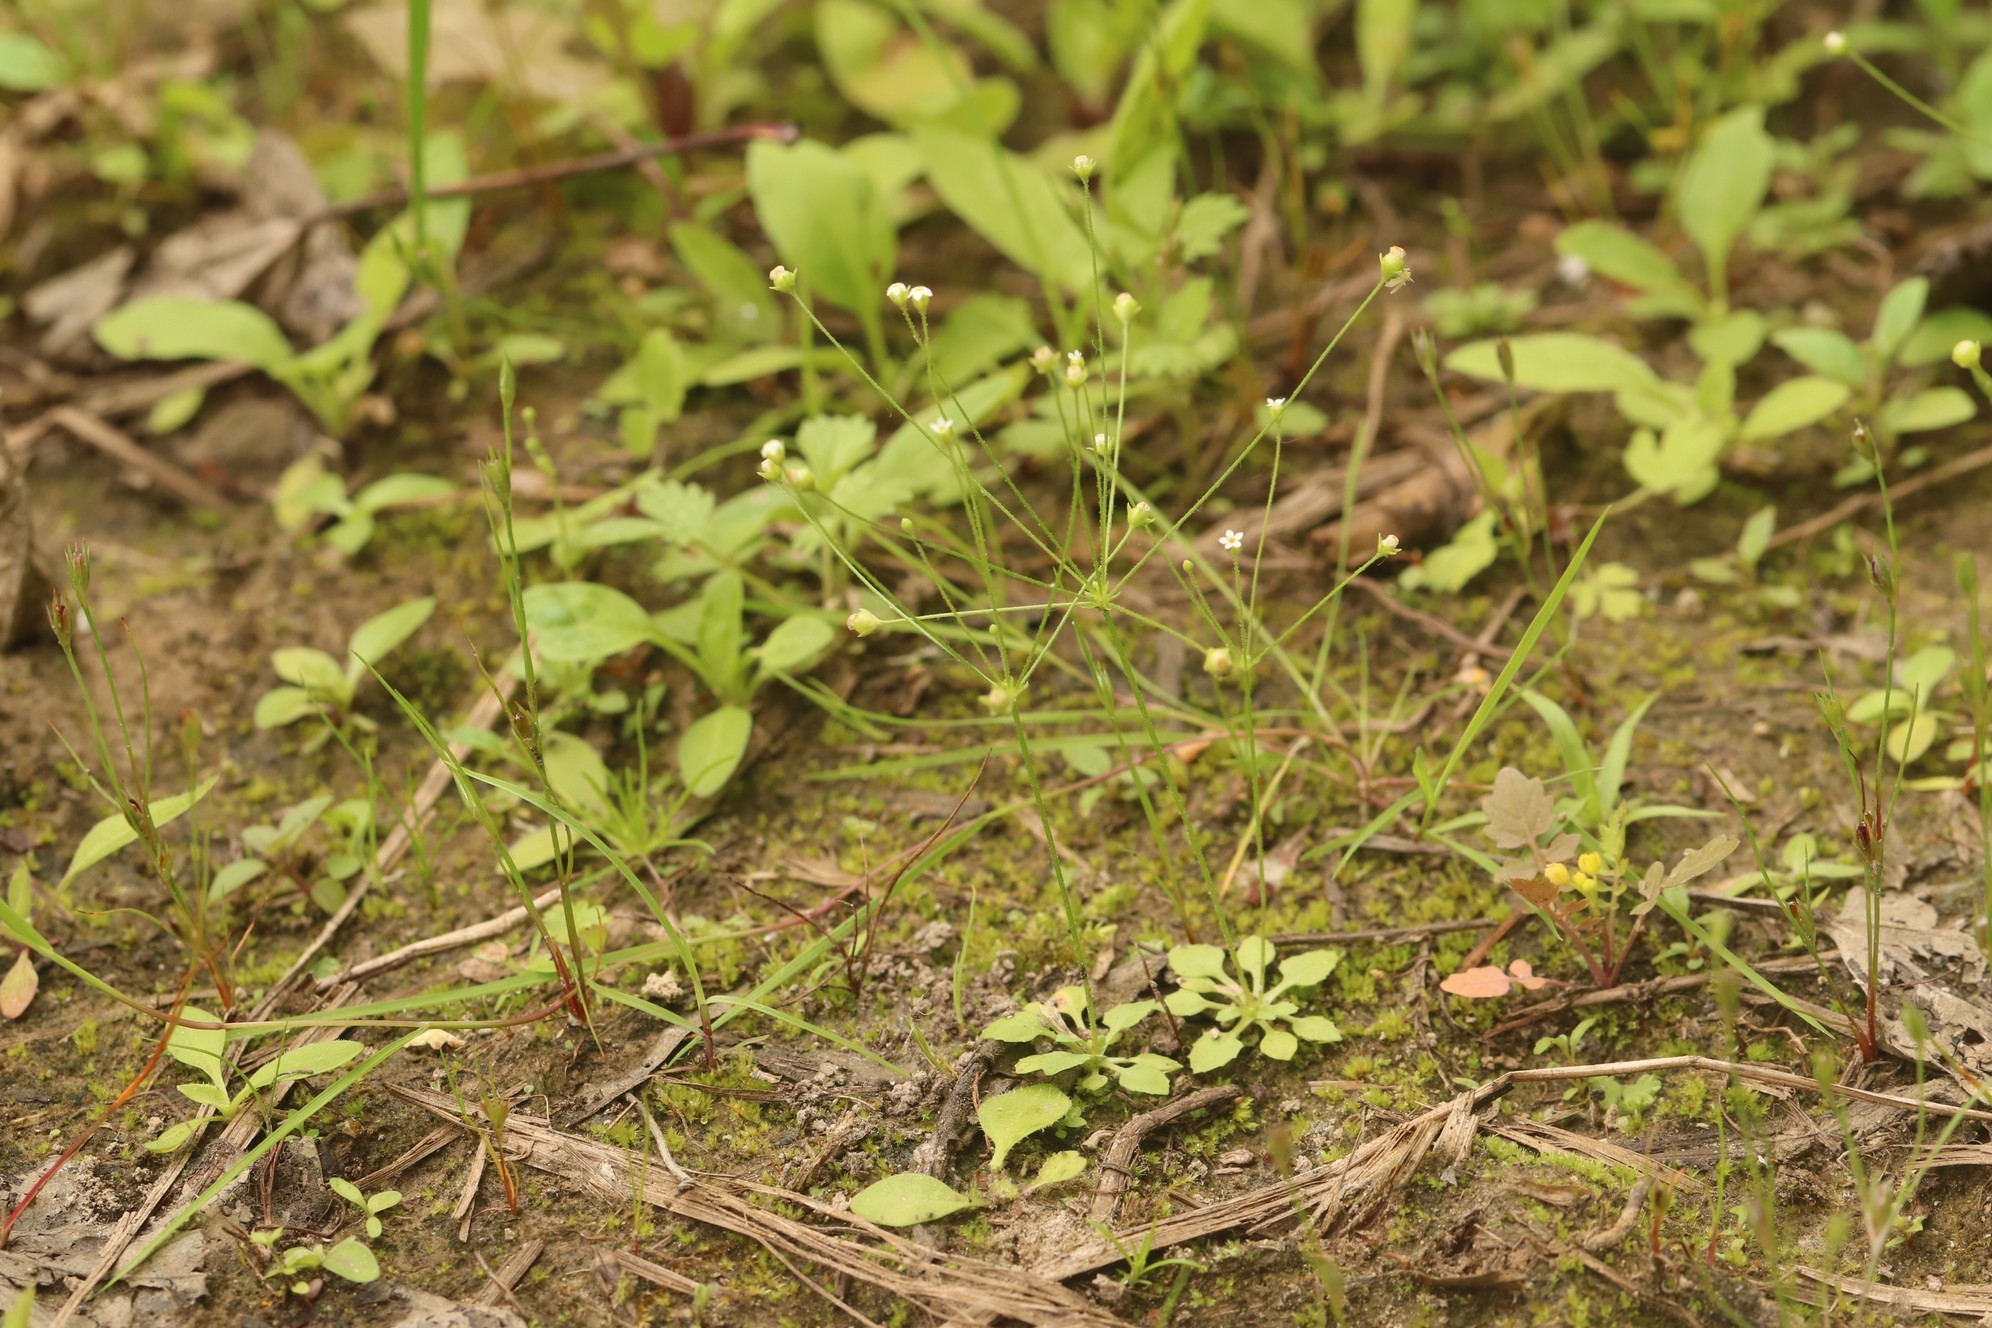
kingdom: Plantae
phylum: Tracheophyta
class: Magnoliopsida
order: Ericales
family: Primulaceae
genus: Androsace
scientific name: Androsace filiformis
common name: Filiform rock jasmine
